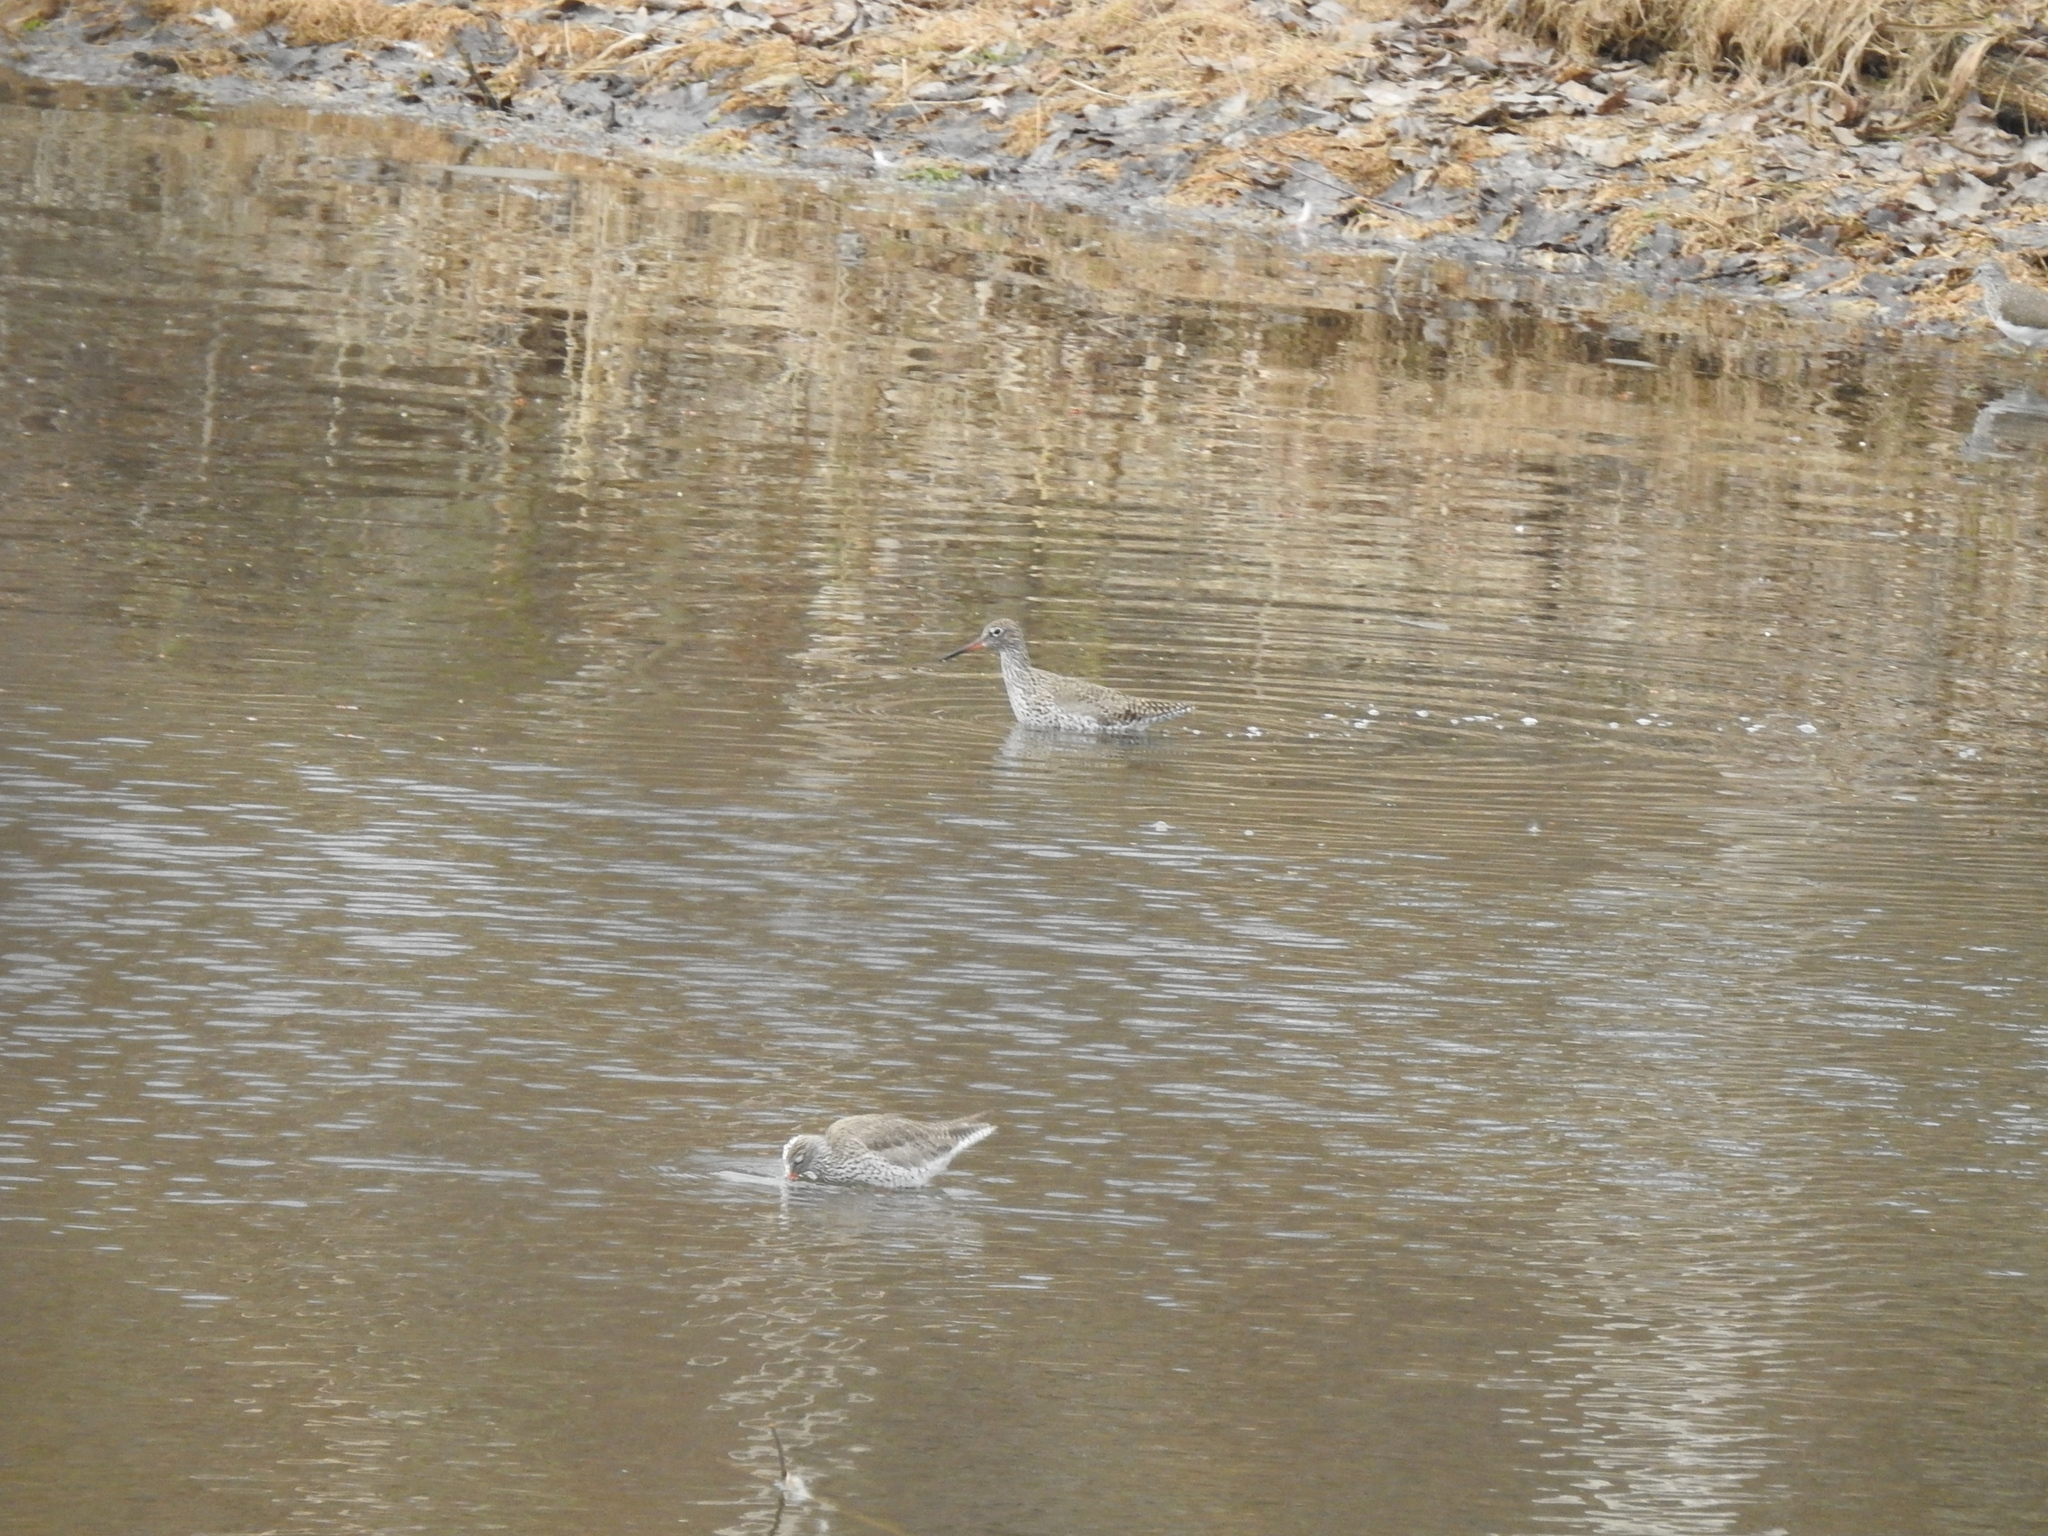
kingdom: Animalia
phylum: Chordata
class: Aves
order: Charadriiformes
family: Scolopacidae
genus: Tringa
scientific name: Tringa totanus
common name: Common redshank
